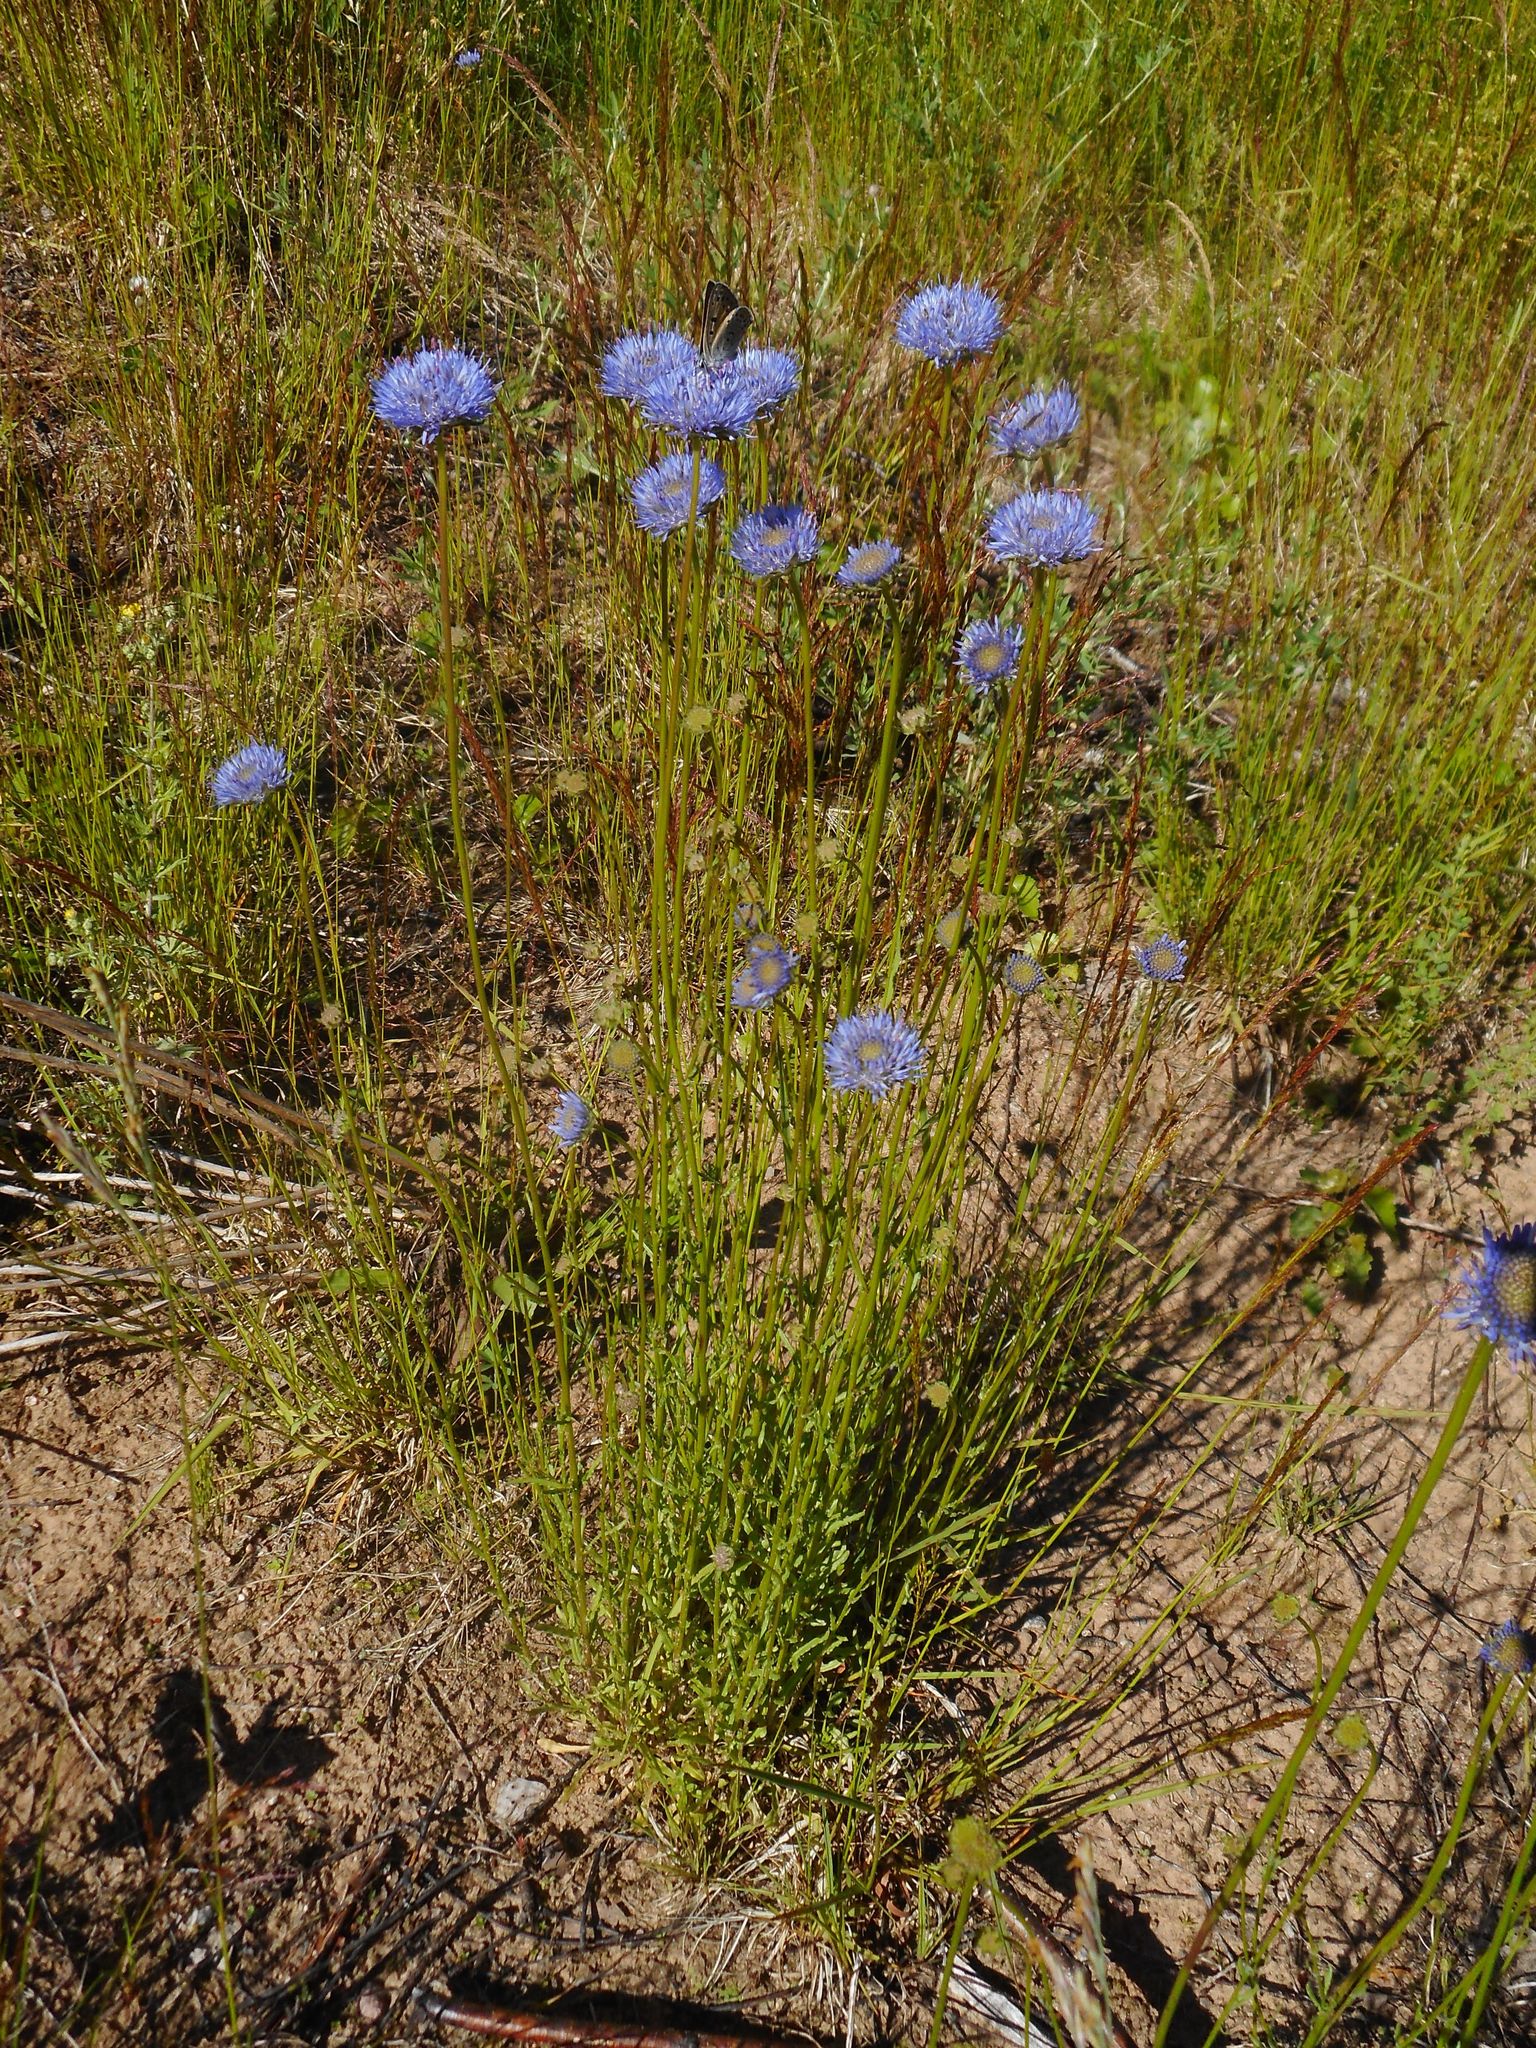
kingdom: Plantae
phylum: Tracheophyta
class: Magnoliopsida
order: Asterales
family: Campanulaceae
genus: Jasione
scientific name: Jasione montana
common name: Sheep's-bit
